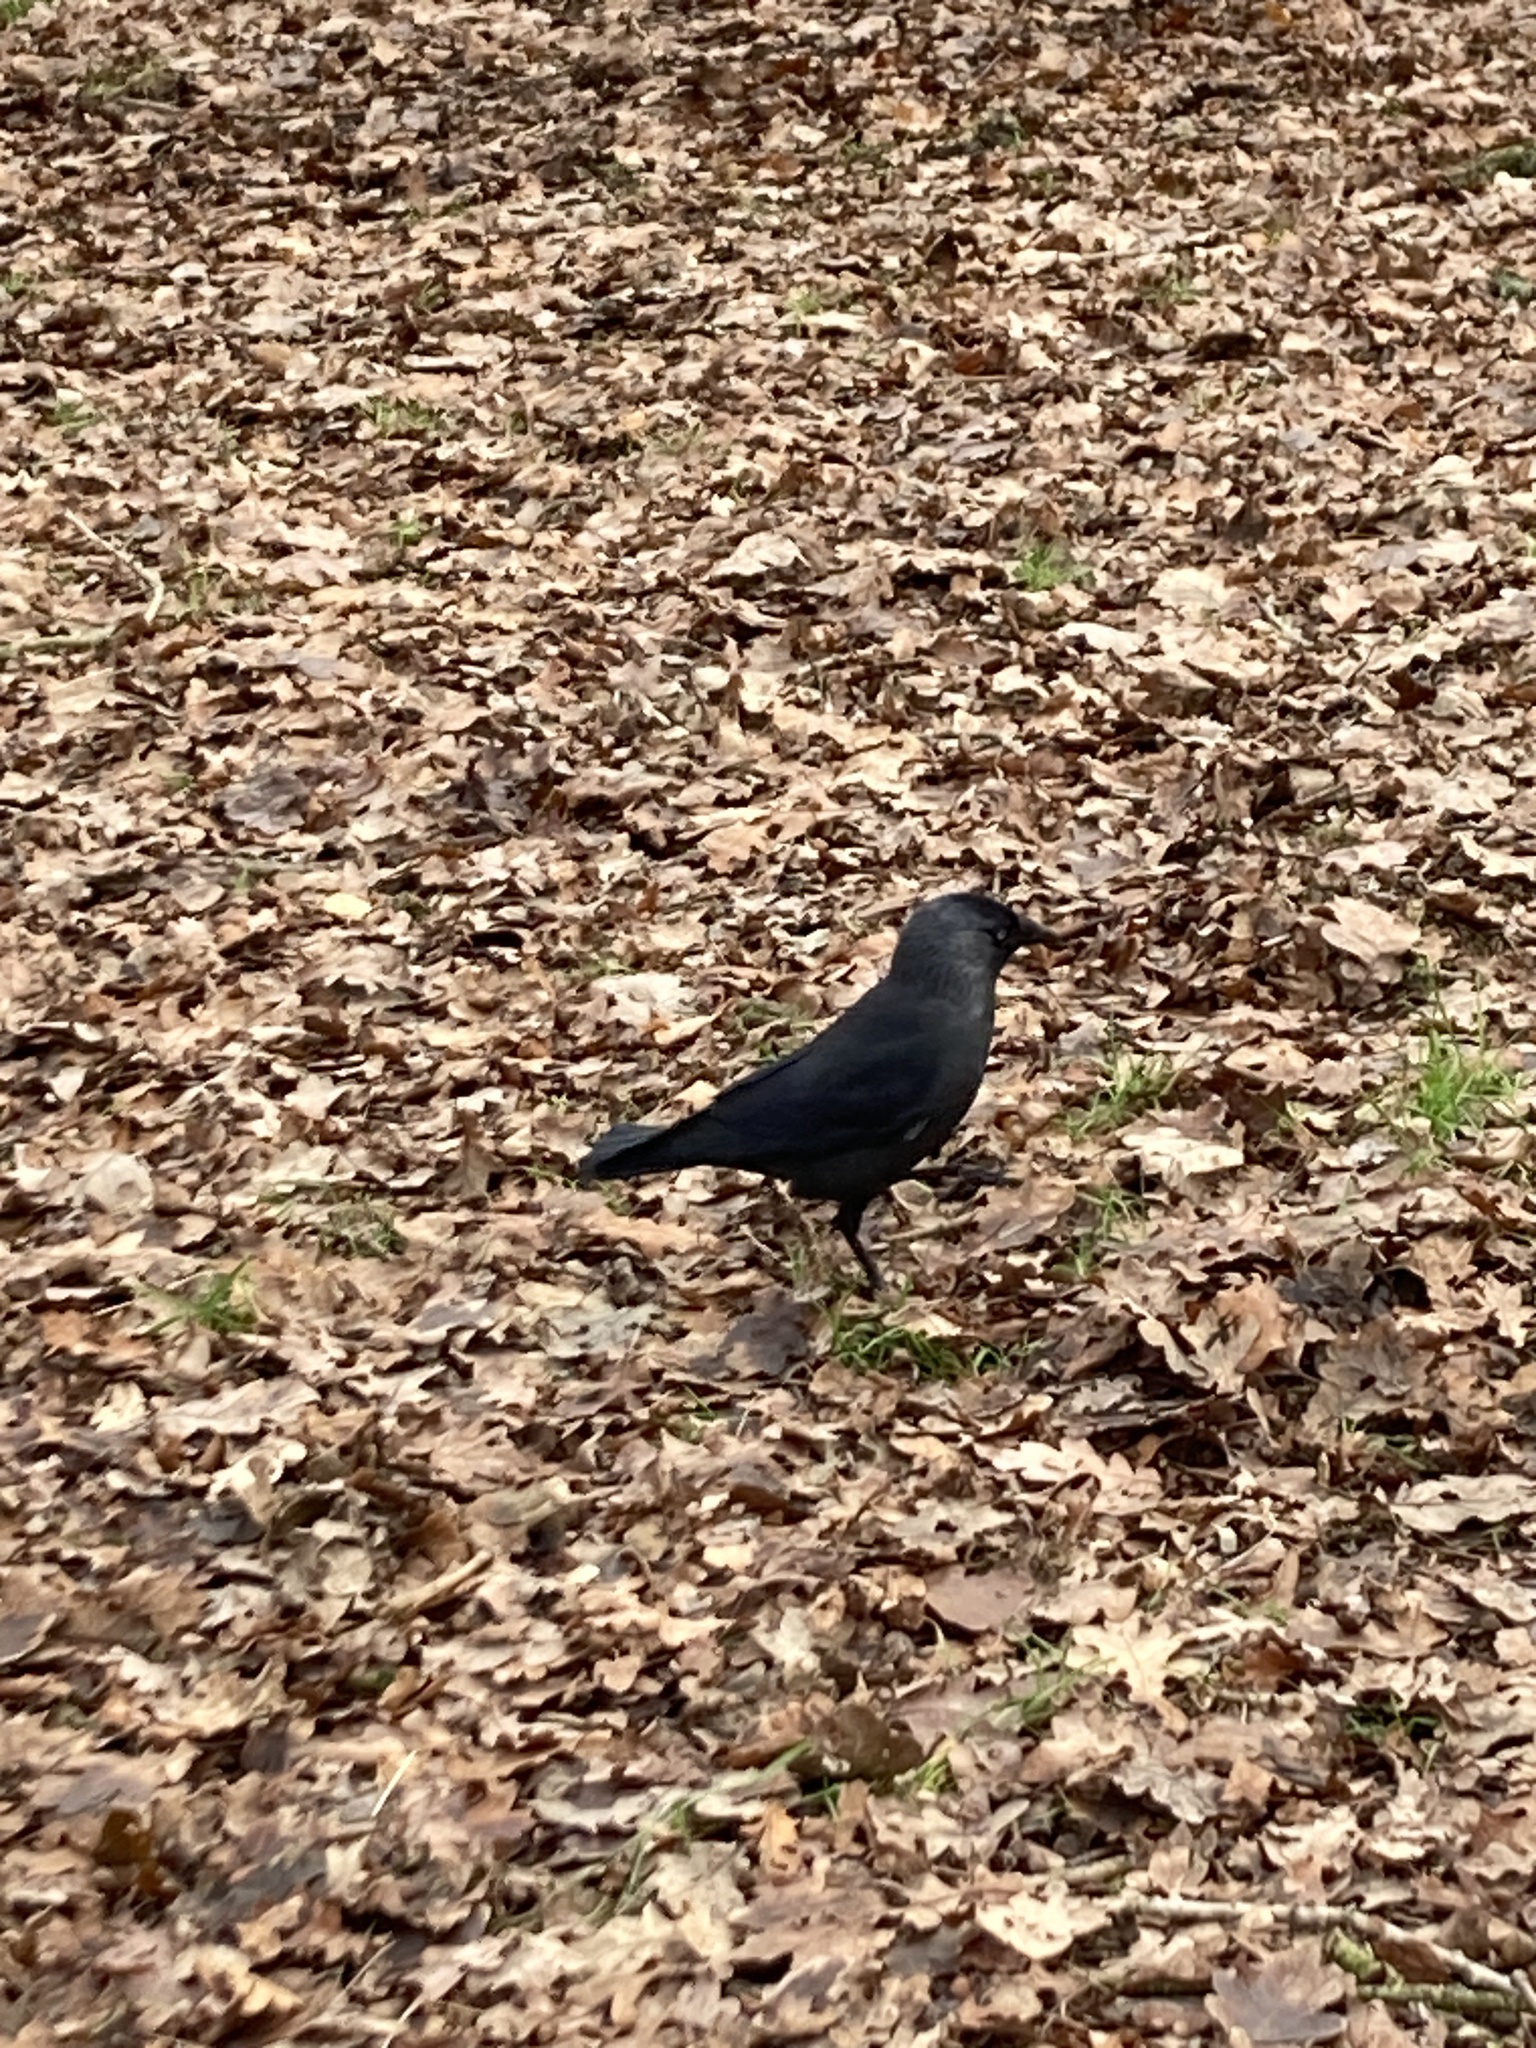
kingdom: Animalia
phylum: Chordata
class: Aves
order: Passeriformes
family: Corvidae
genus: Coloeus
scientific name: Coloeus monedula
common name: Western jackdaw
